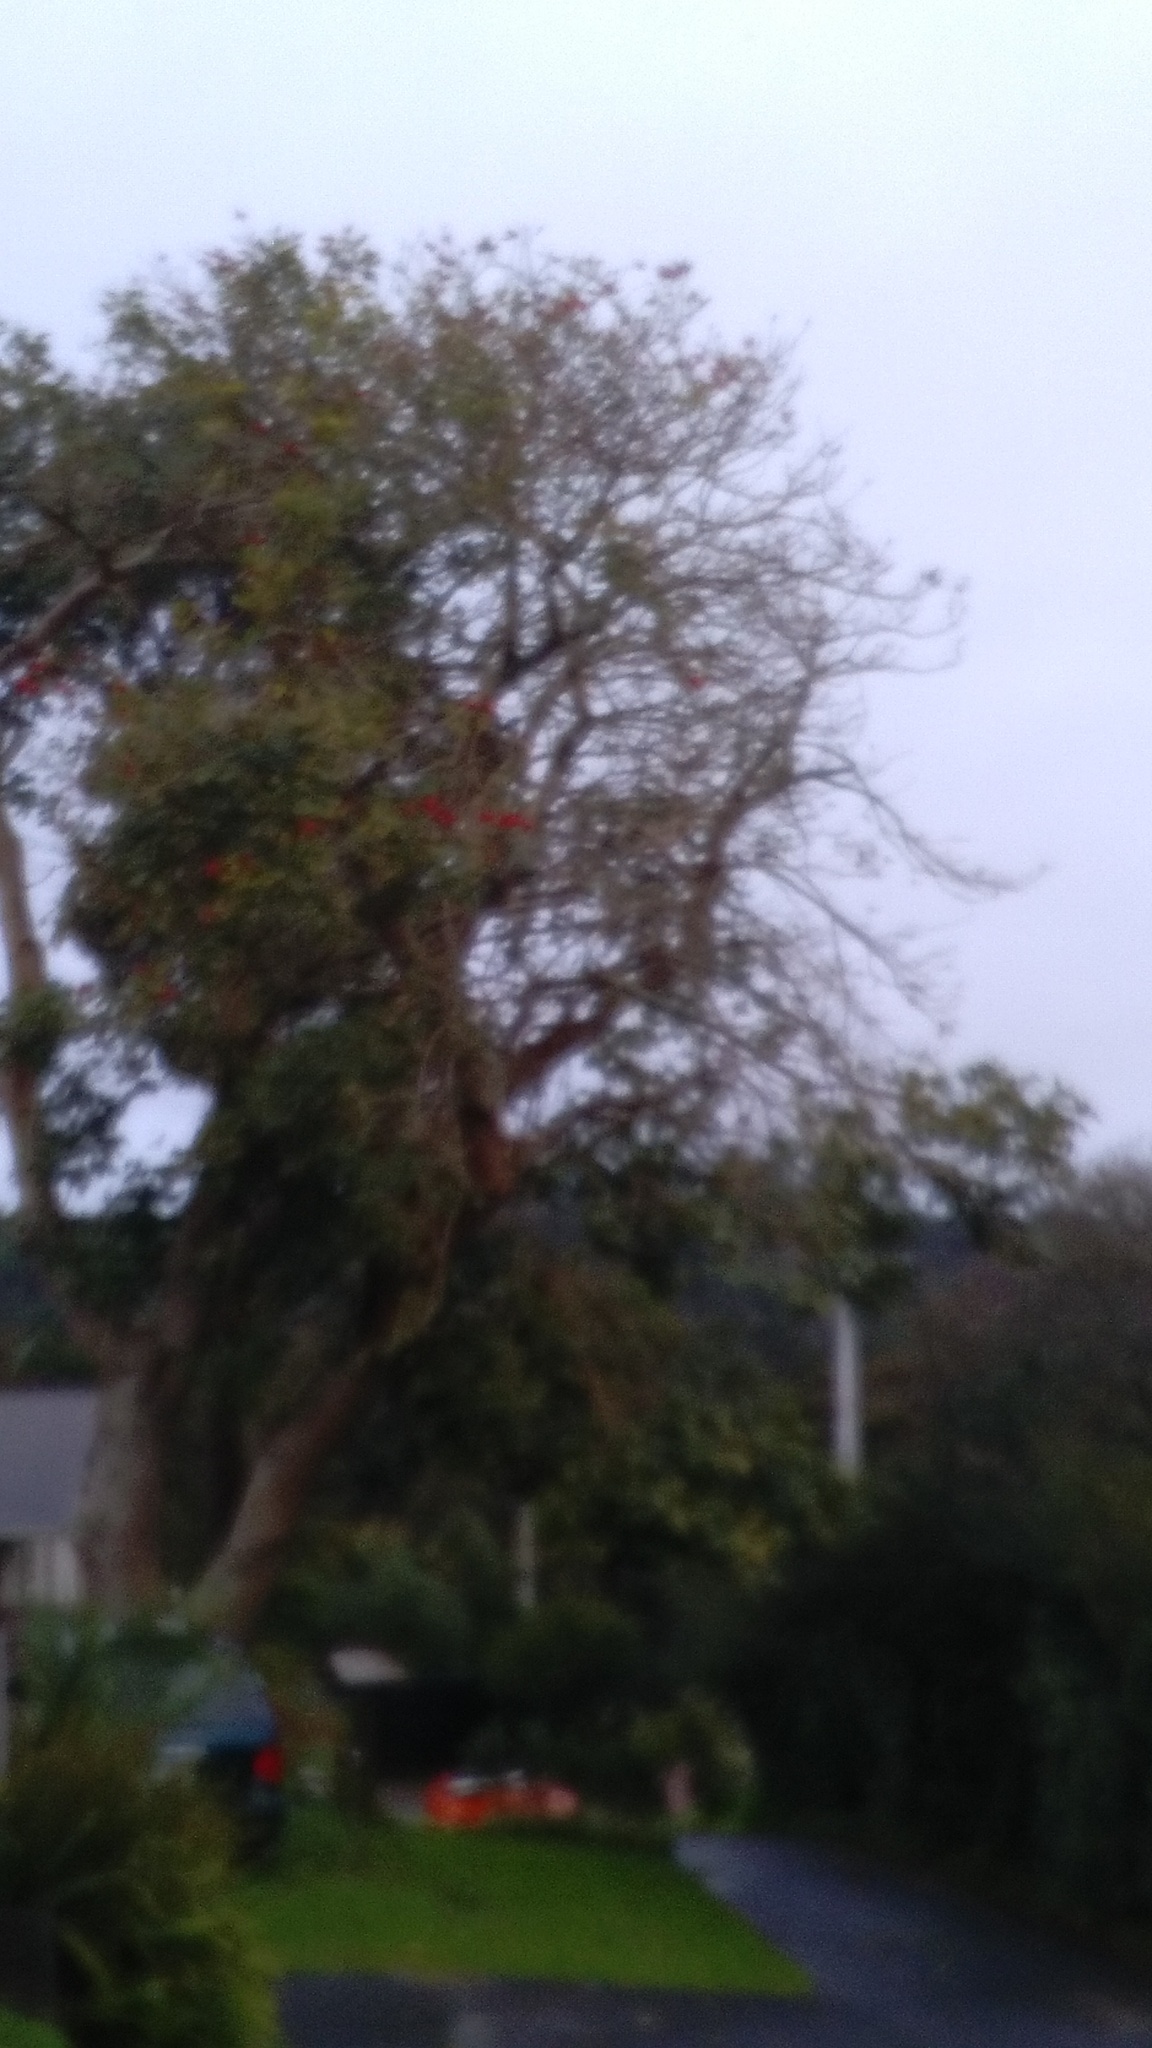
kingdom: Plantae
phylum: Tracheophyta
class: Magnoliopsida
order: Fabales
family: Fabaceae
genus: Erythrina
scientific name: Erythrina sykesii
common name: Coraltree
